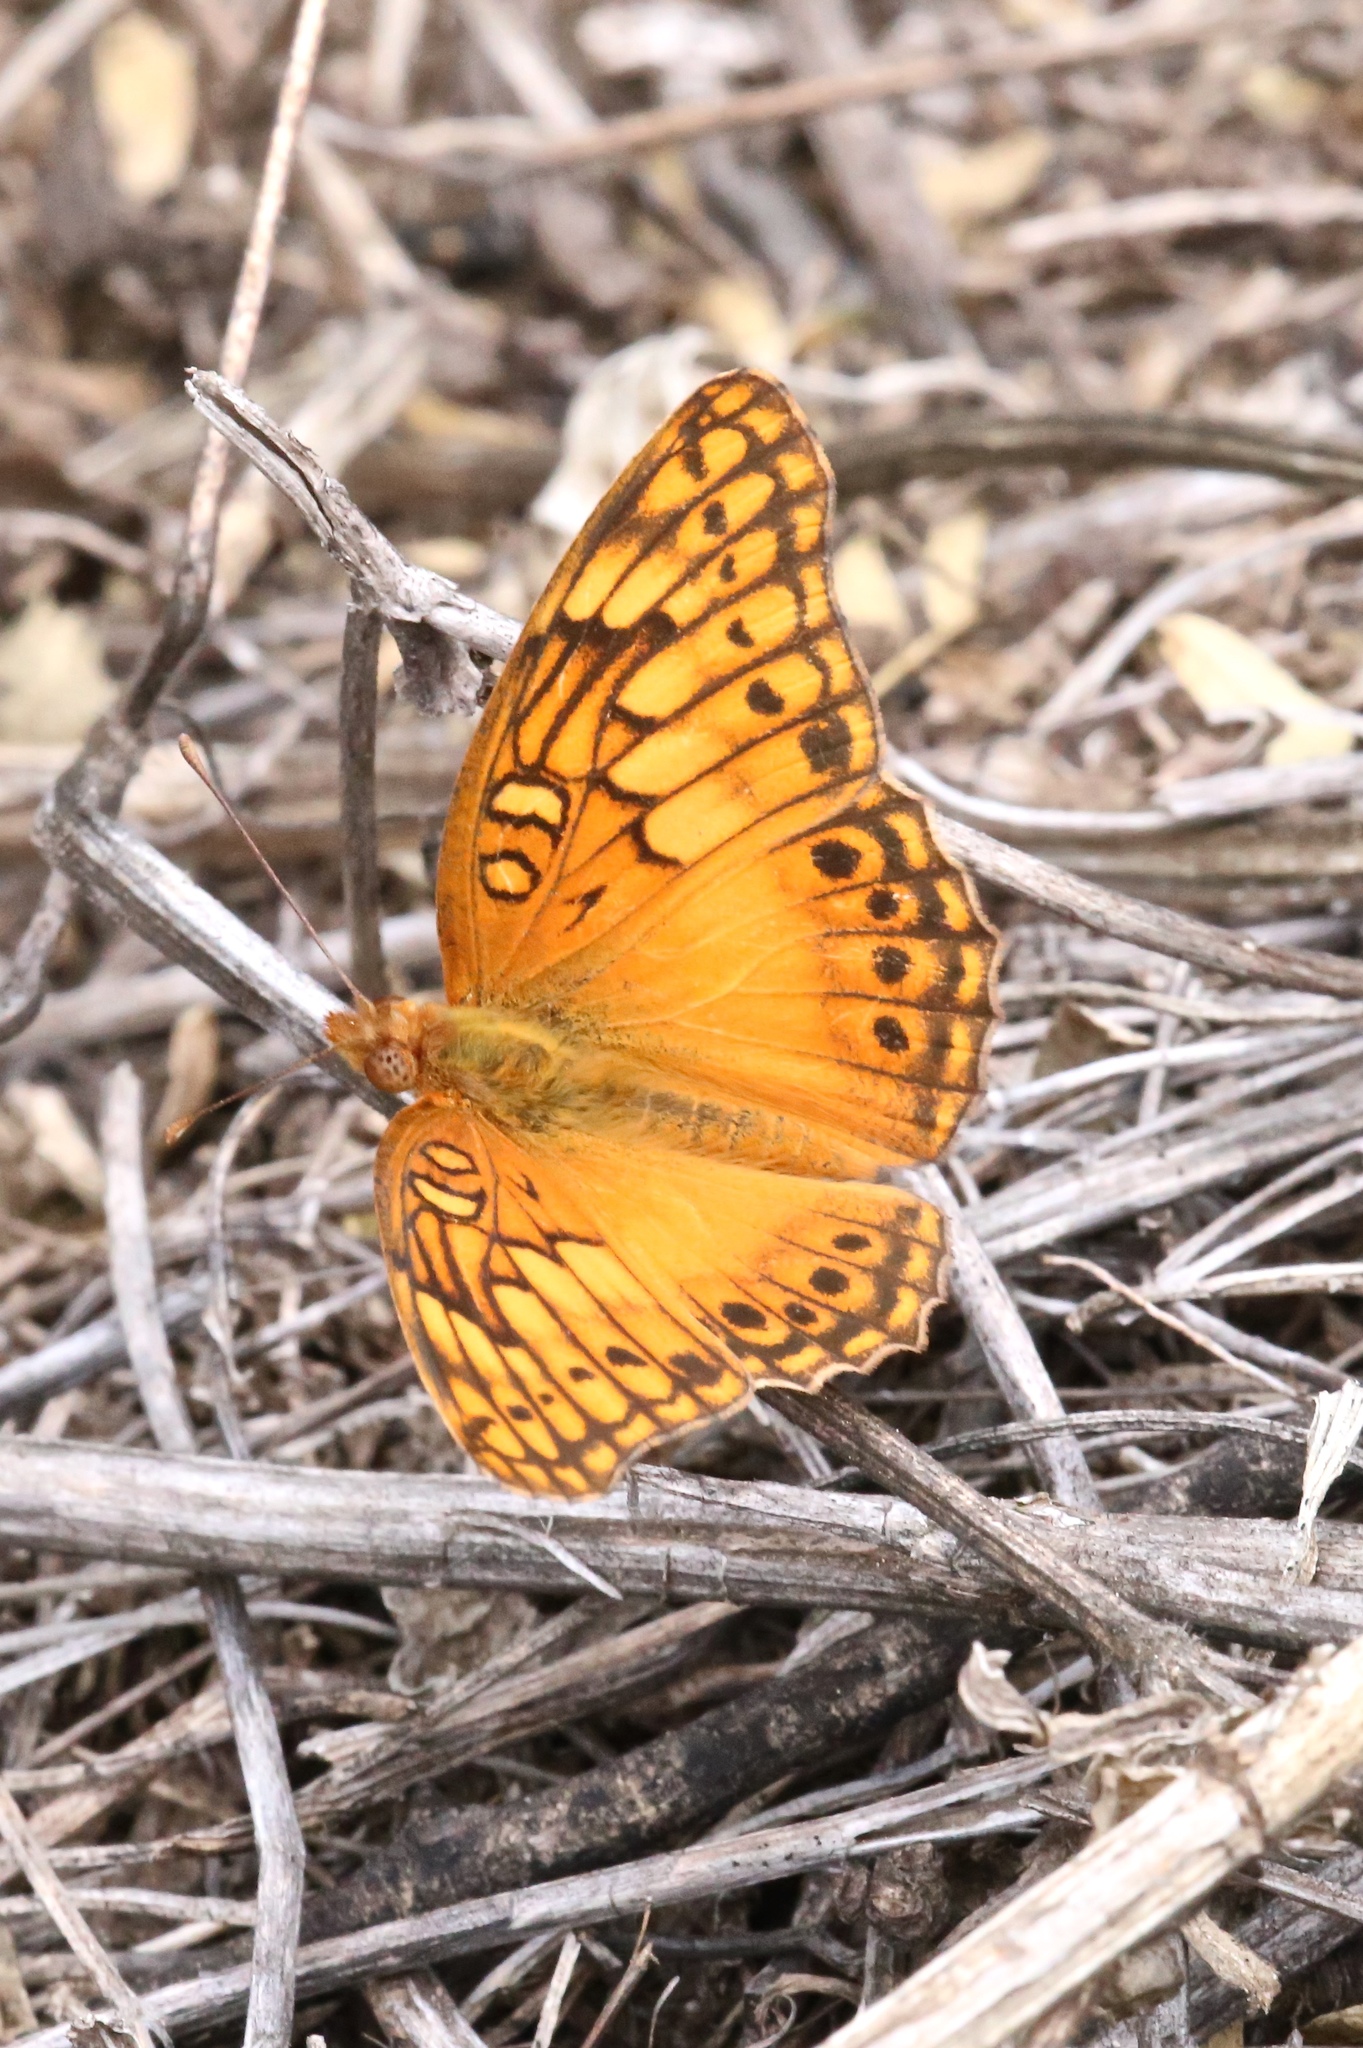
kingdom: Animalia
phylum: Arthropoda
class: Insecta
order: Lepidoptera
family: Nymphalidae
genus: Euptoieta
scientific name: Euptoieta hegesia
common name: Mexican fritillary
